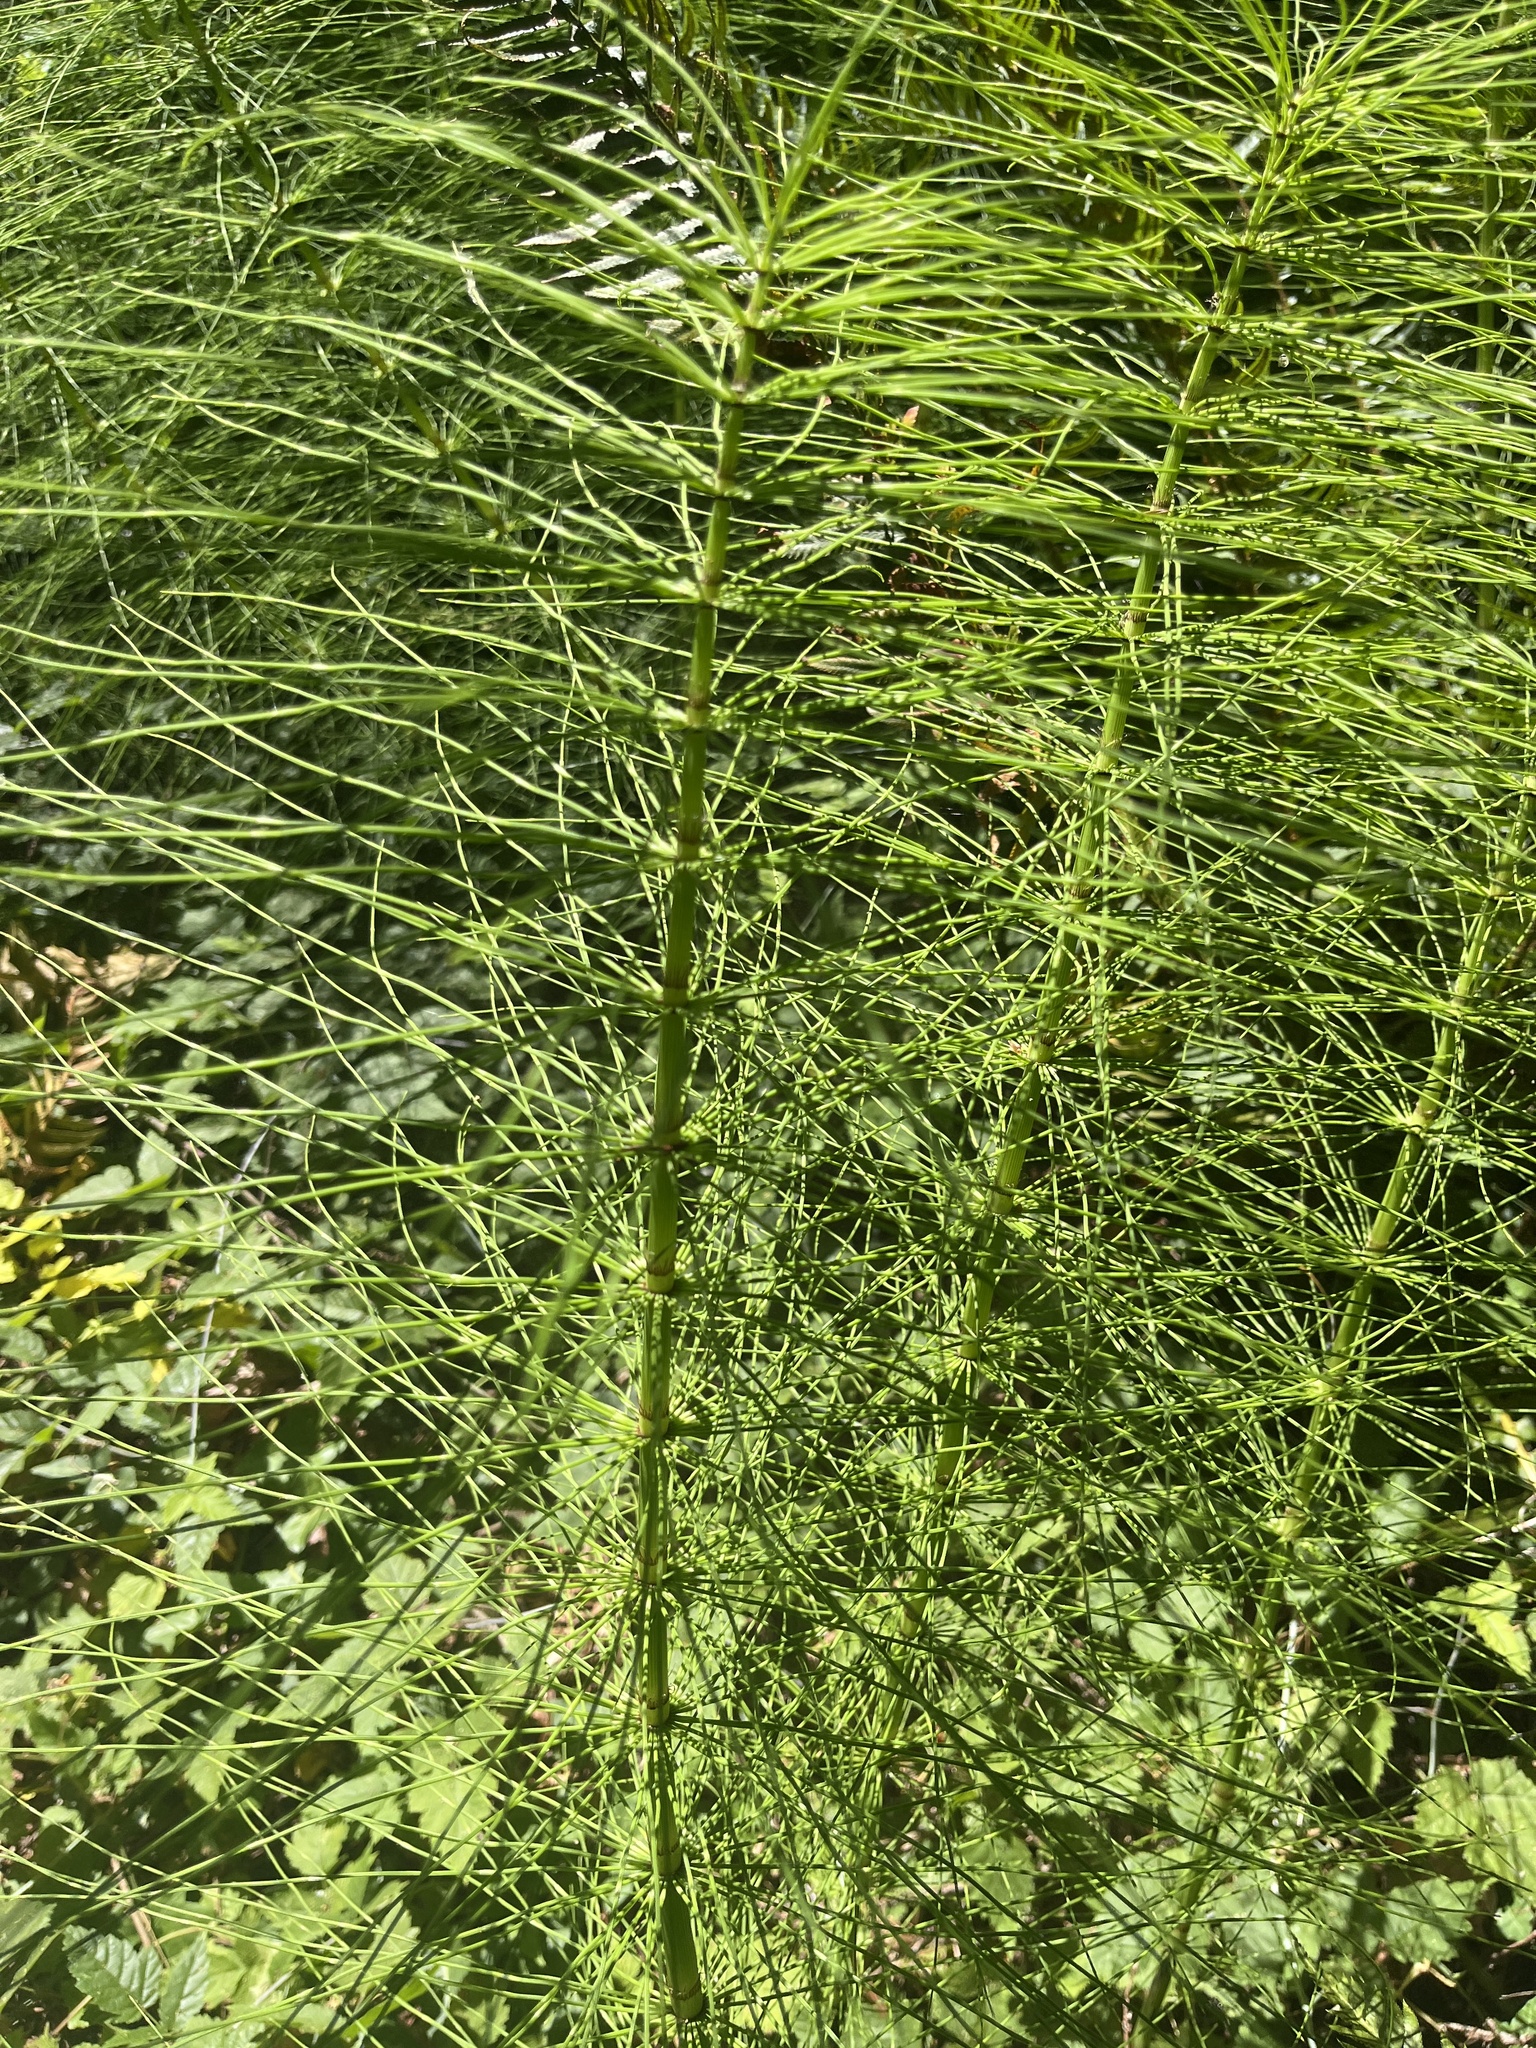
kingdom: Plantae
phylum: Tracheophyta
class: Polypodiopsida
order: Equisetales
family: Equisetaceae
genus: Equisetum
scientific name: Equisetum telmateia
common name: Great horsetail
